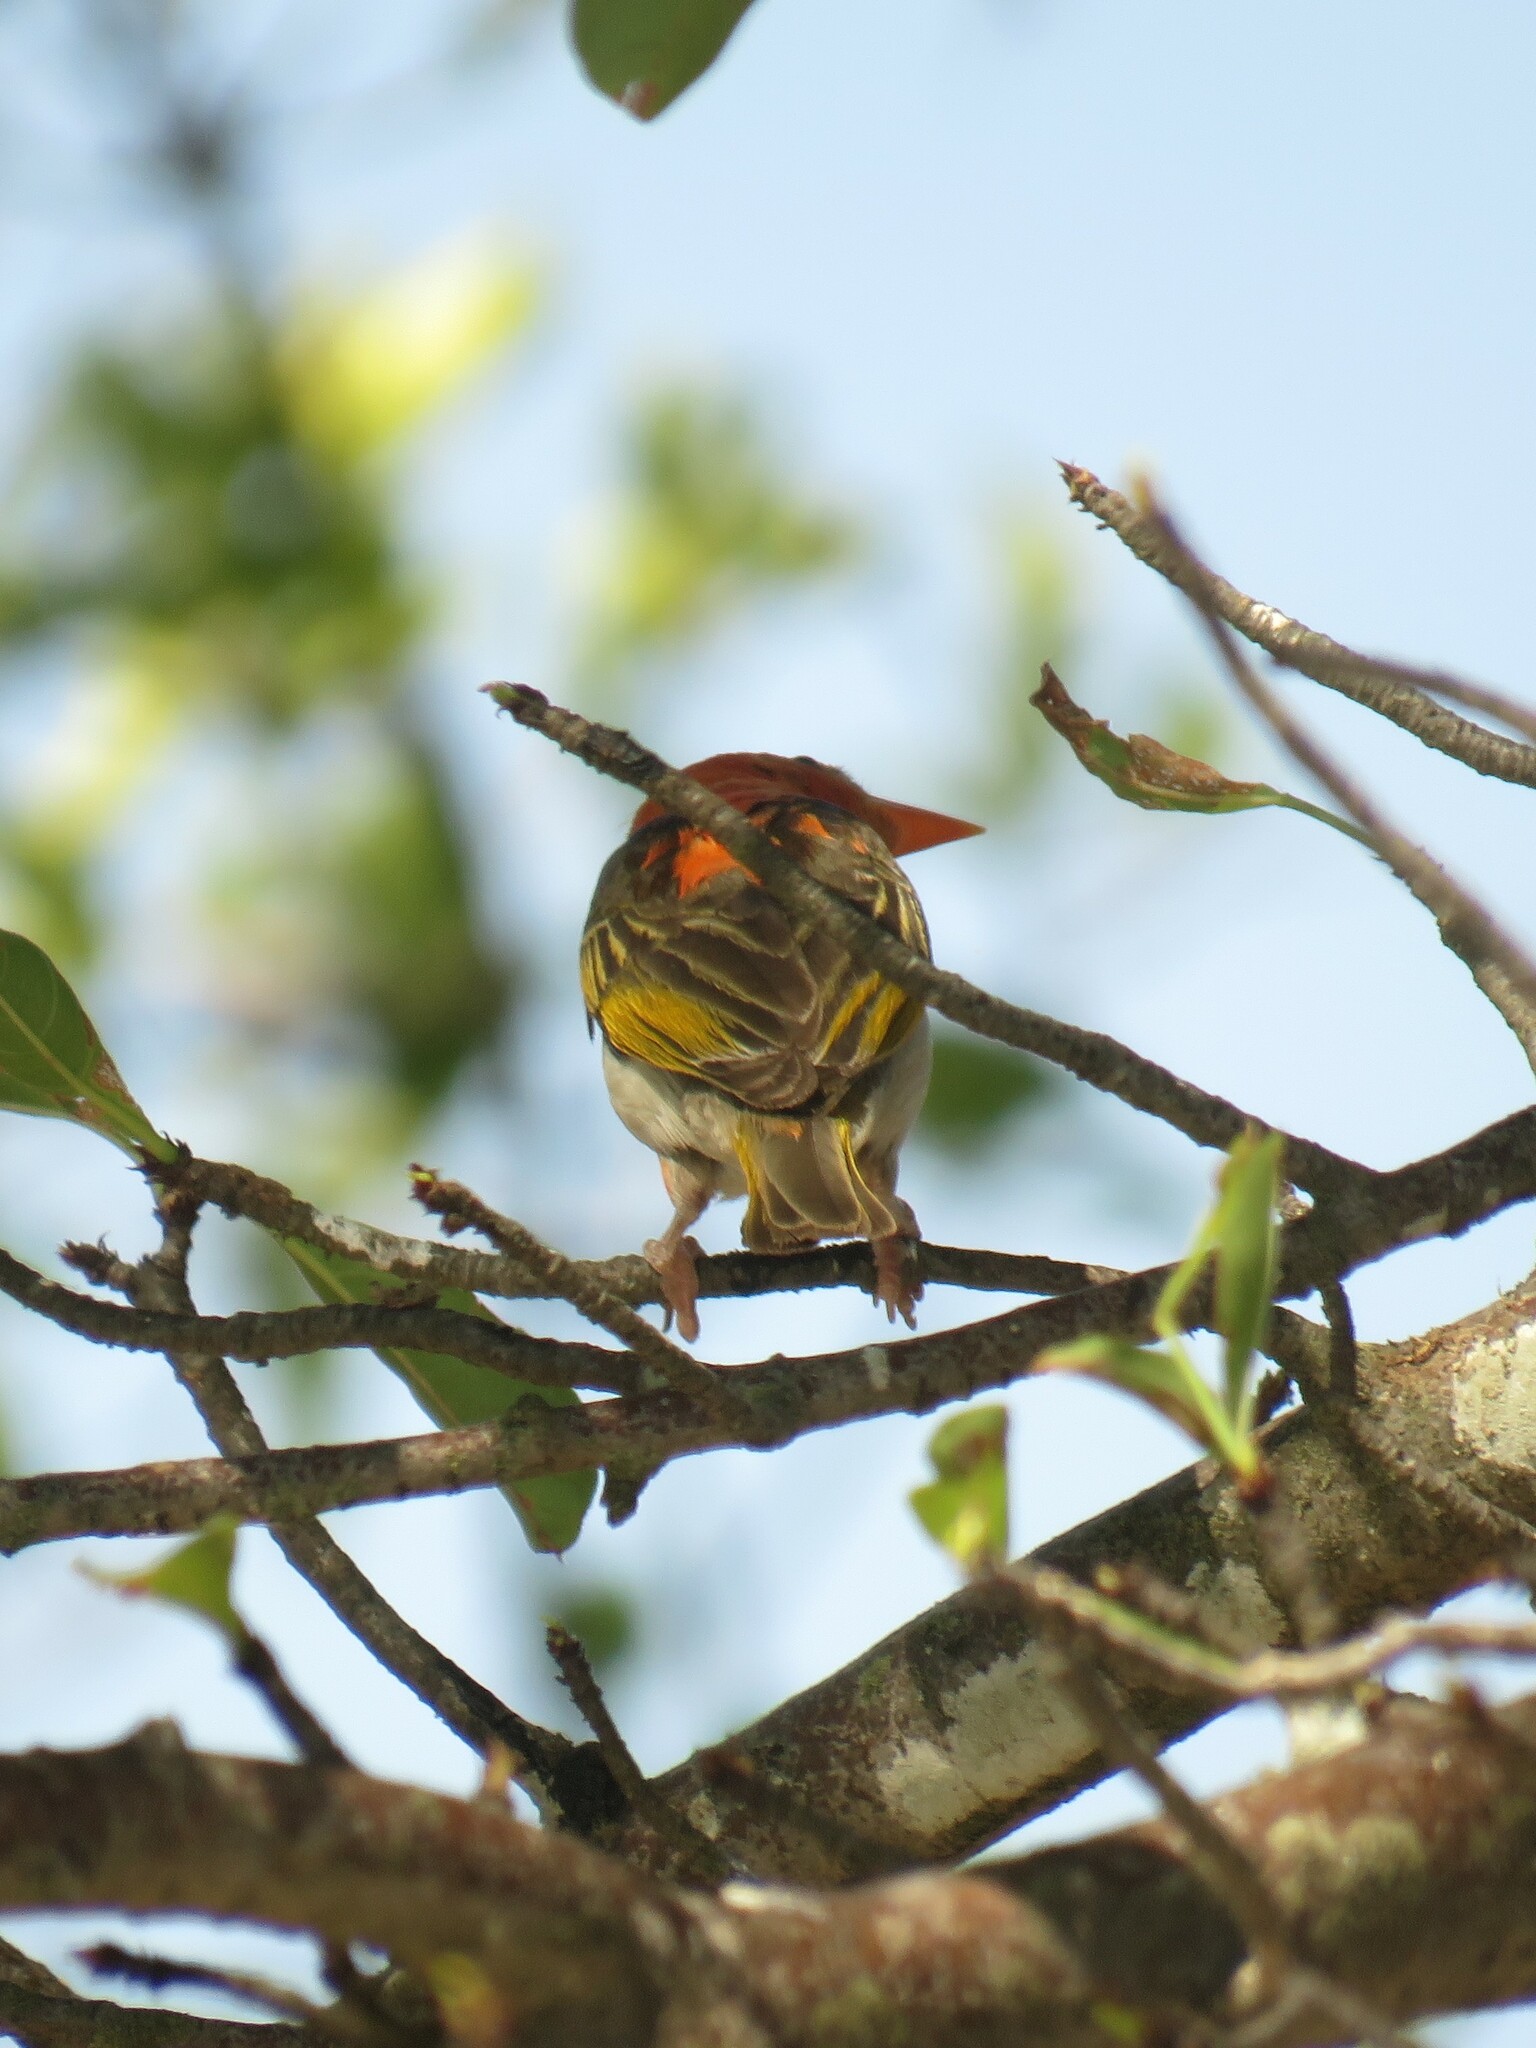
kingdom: Animalia
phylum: Chordata
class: Aves
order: Passeriformes
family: Ploceidae
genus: Anaplectes
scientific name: Anaplectes rubriceps
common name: Red-headed weaver
